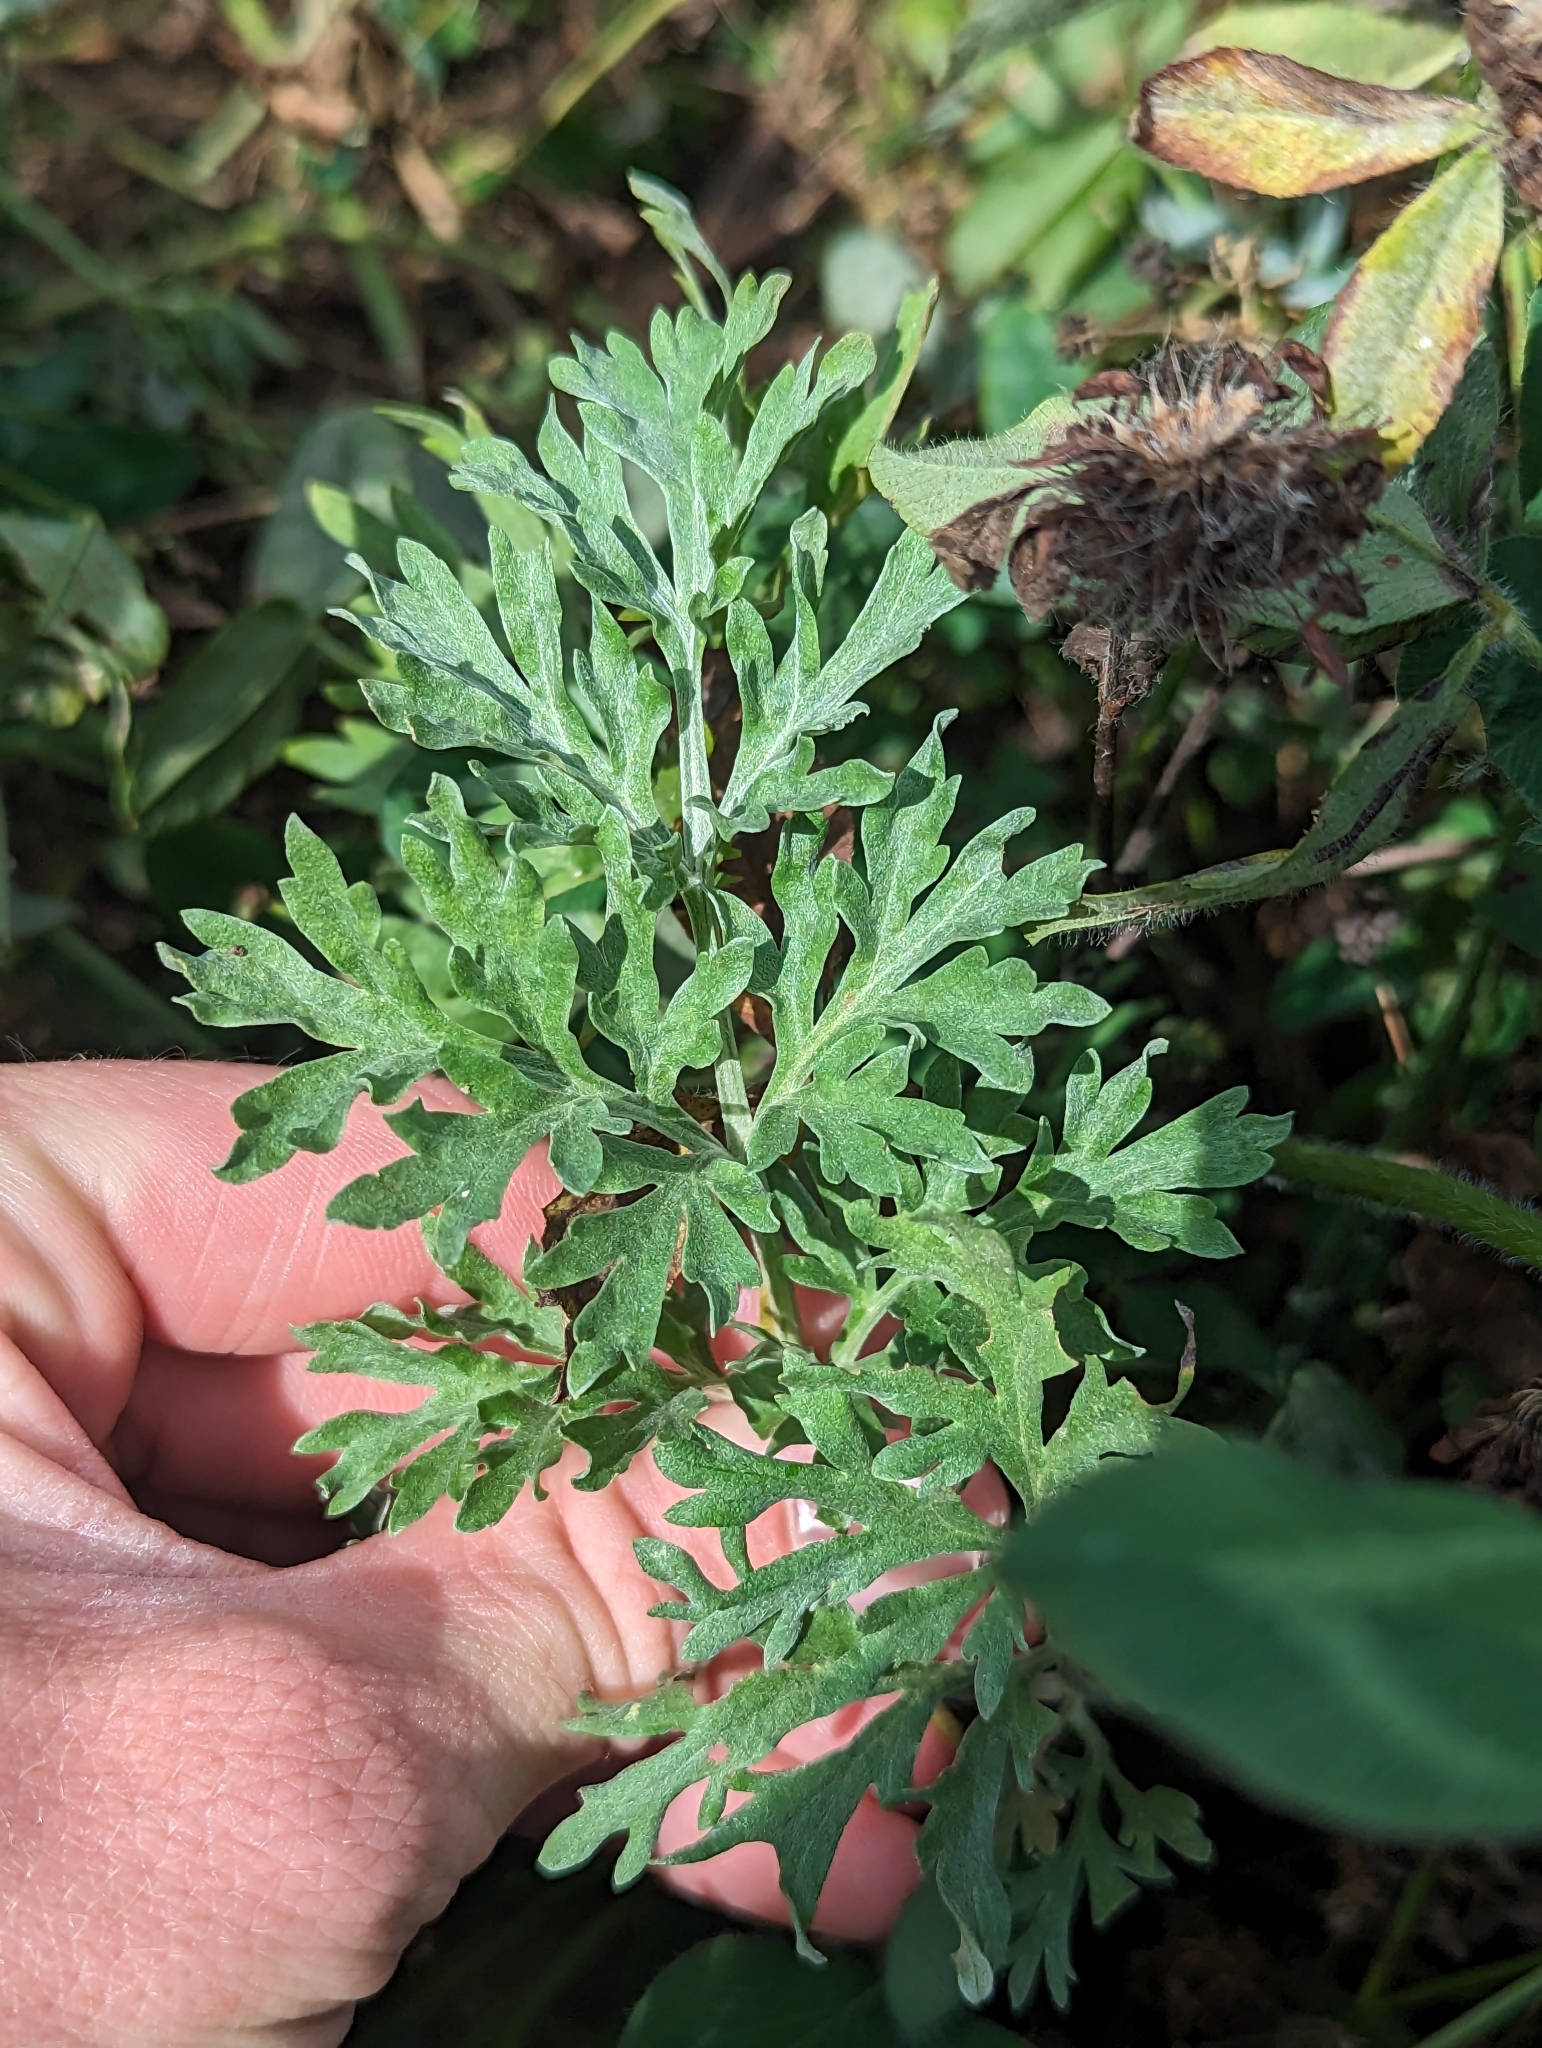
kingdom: Plantae
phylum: Tracheophyta
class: Magnoliopsida
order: Asterales
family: Asteraceae
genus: Artemisia
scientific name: Artemisia absinthium
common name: Wormwood
